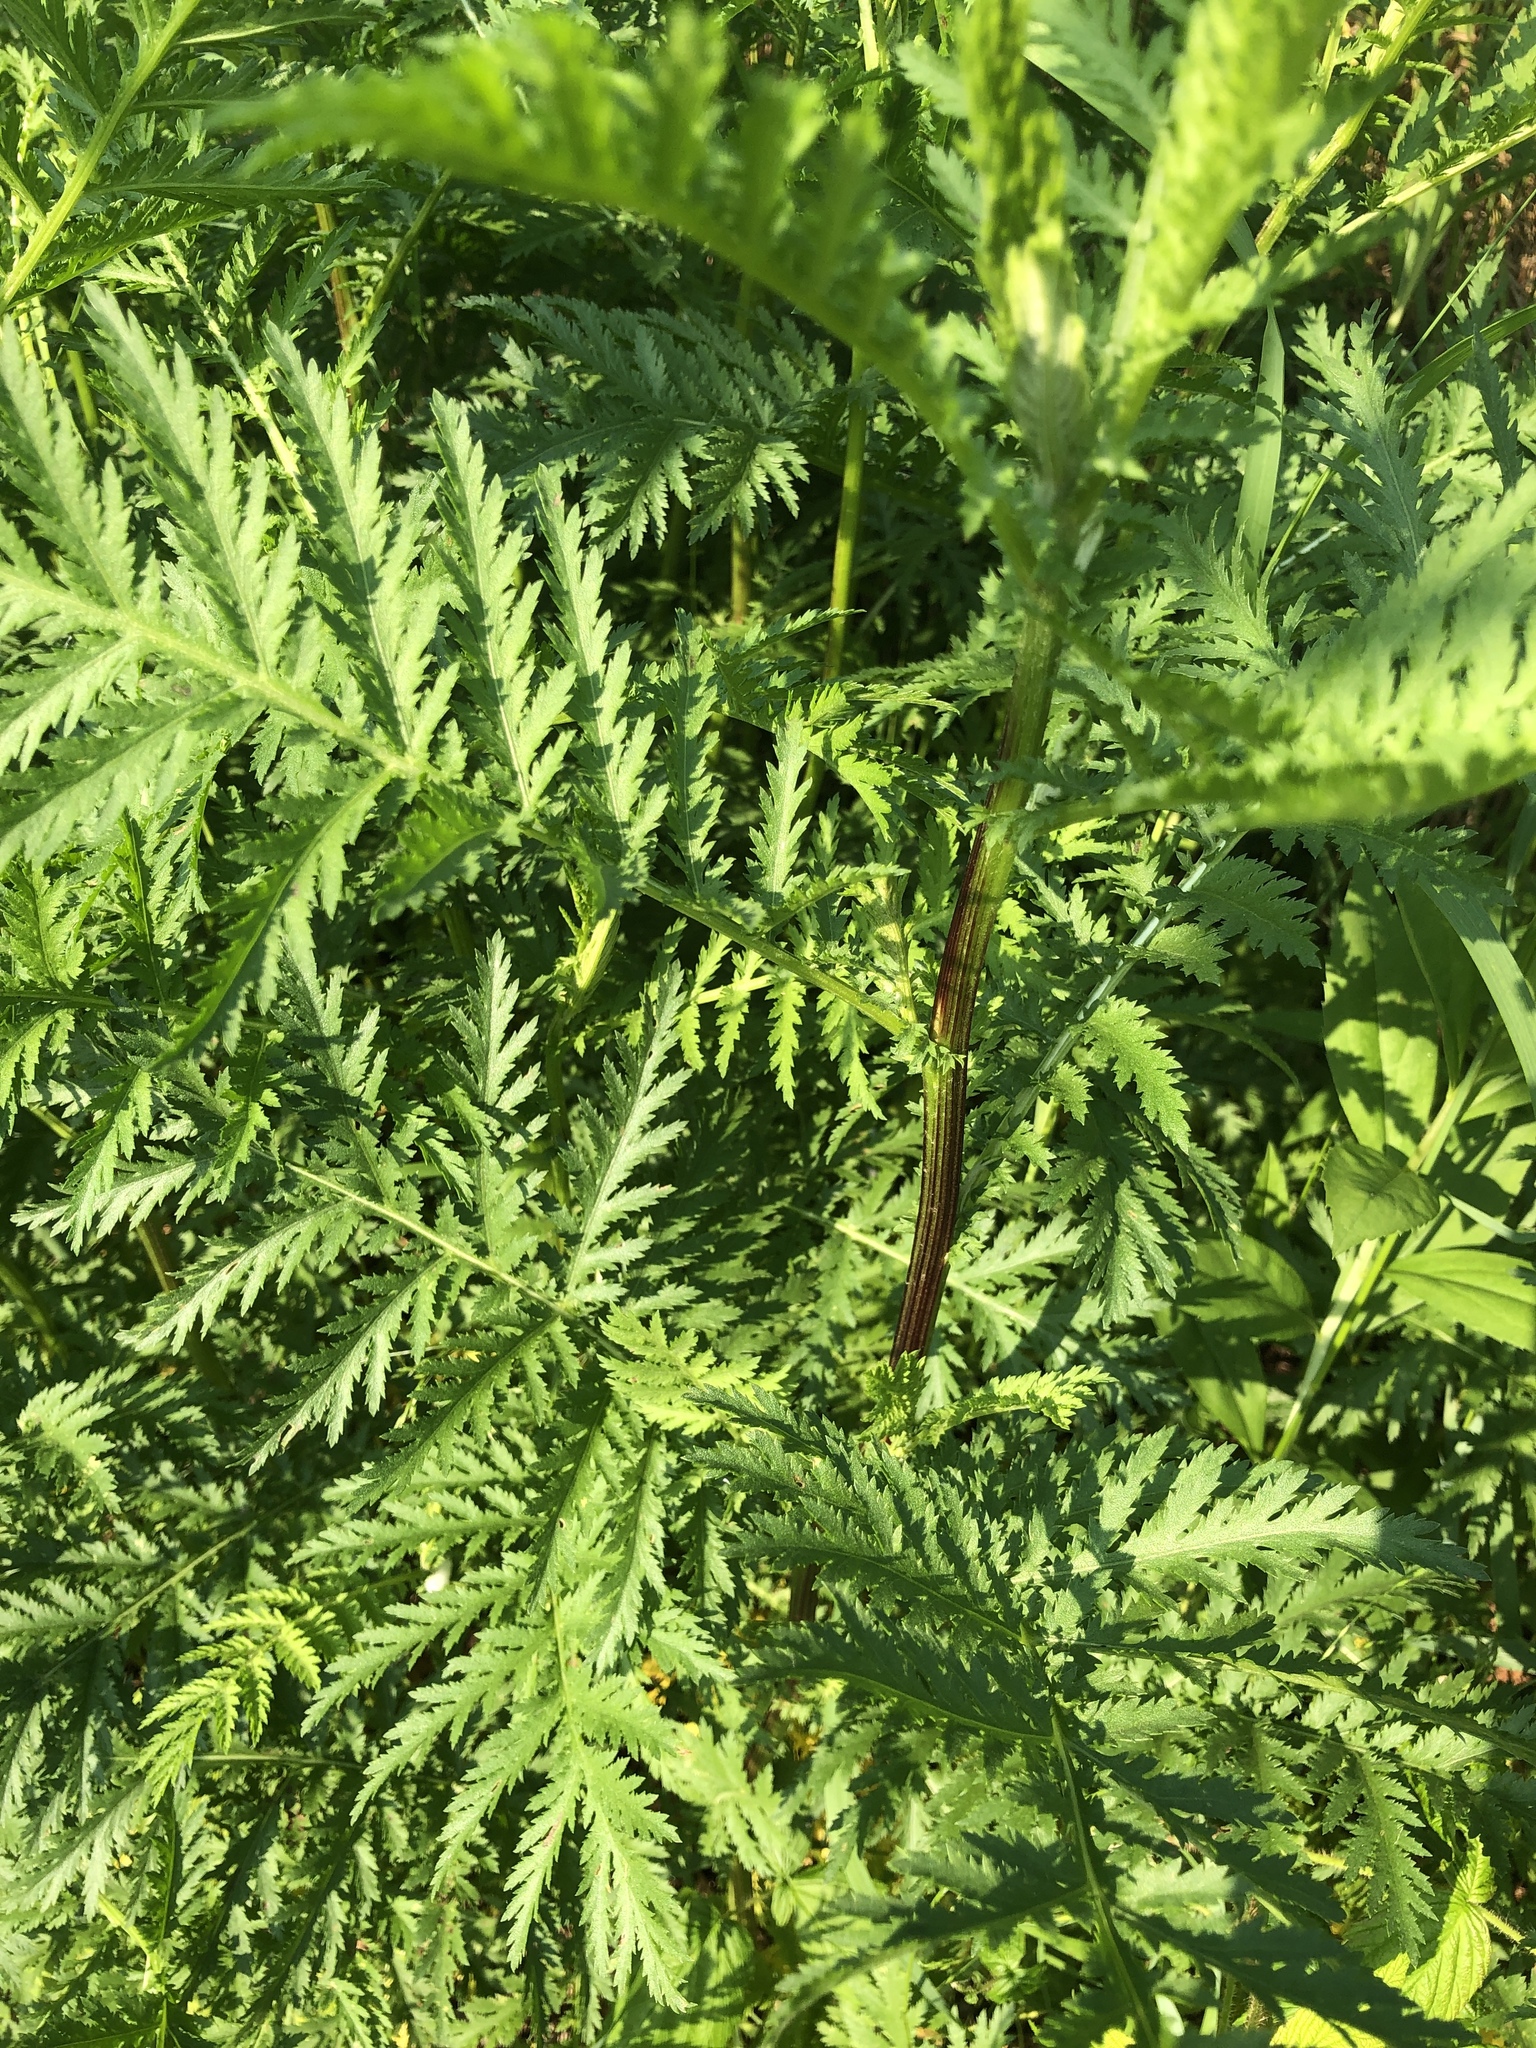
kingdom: Plantae
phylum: Tracheophyta
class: Magnoliopsida
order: Asterales
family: Asteraceae
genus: Tanacetum
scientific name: Tanacetum vulgare
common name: Common tansy
